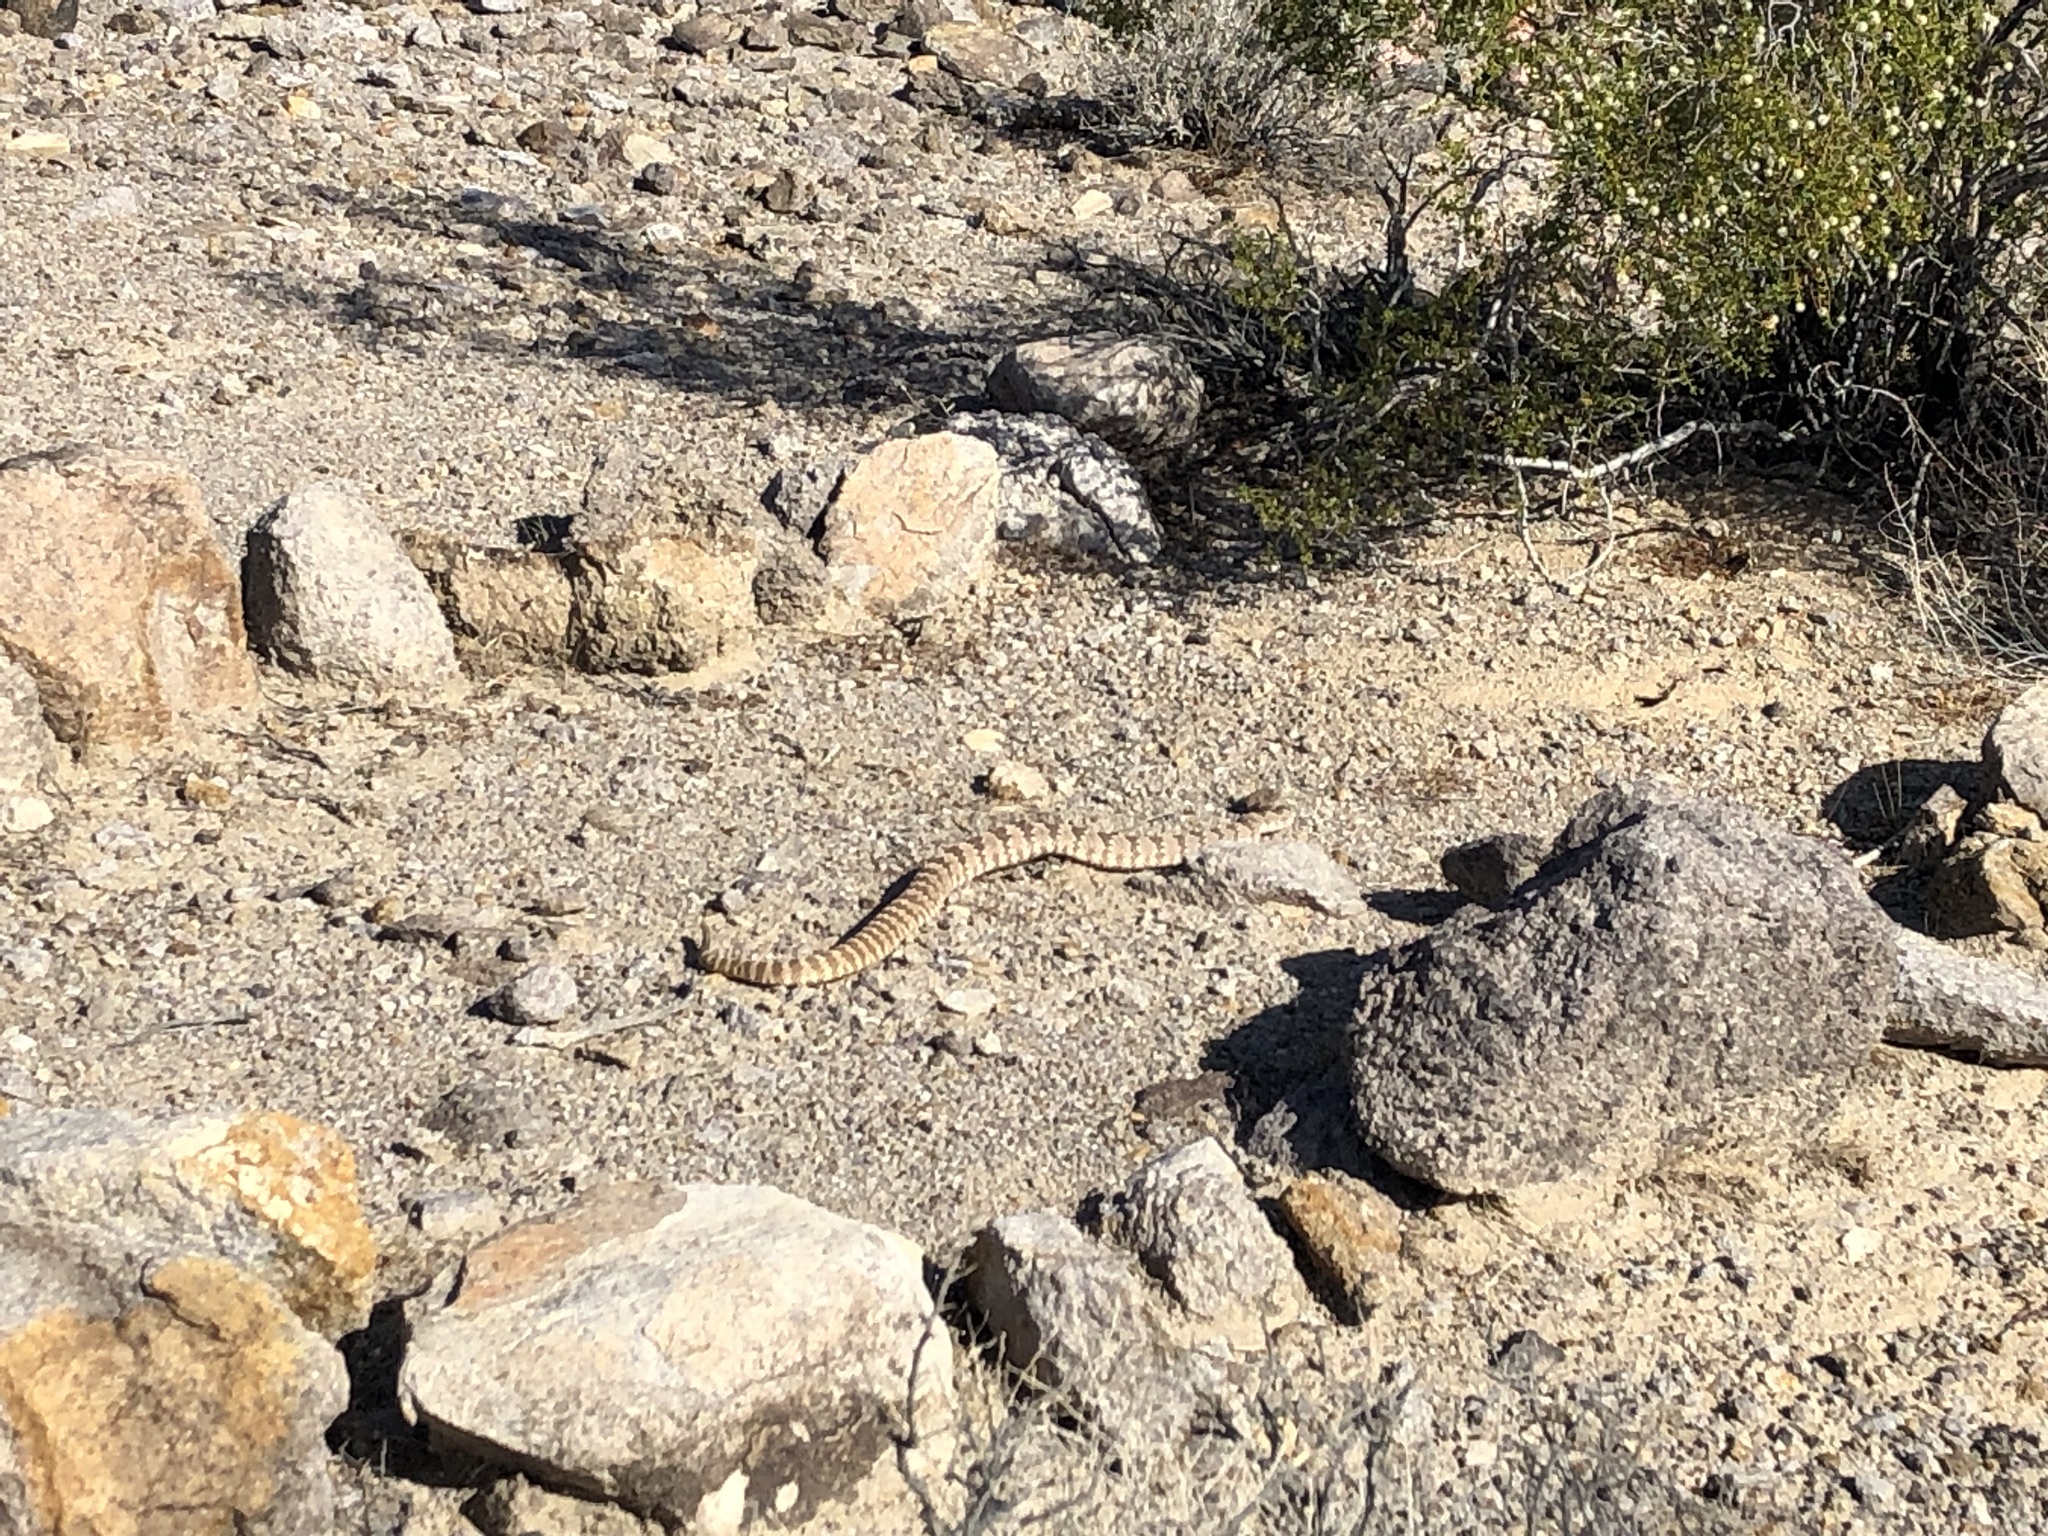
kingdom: Animalia
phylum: Chordata
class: Squamata
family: Viperidae
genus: Crotalus
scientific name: Crotalus stephensi
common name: Panamint rattlesnake
